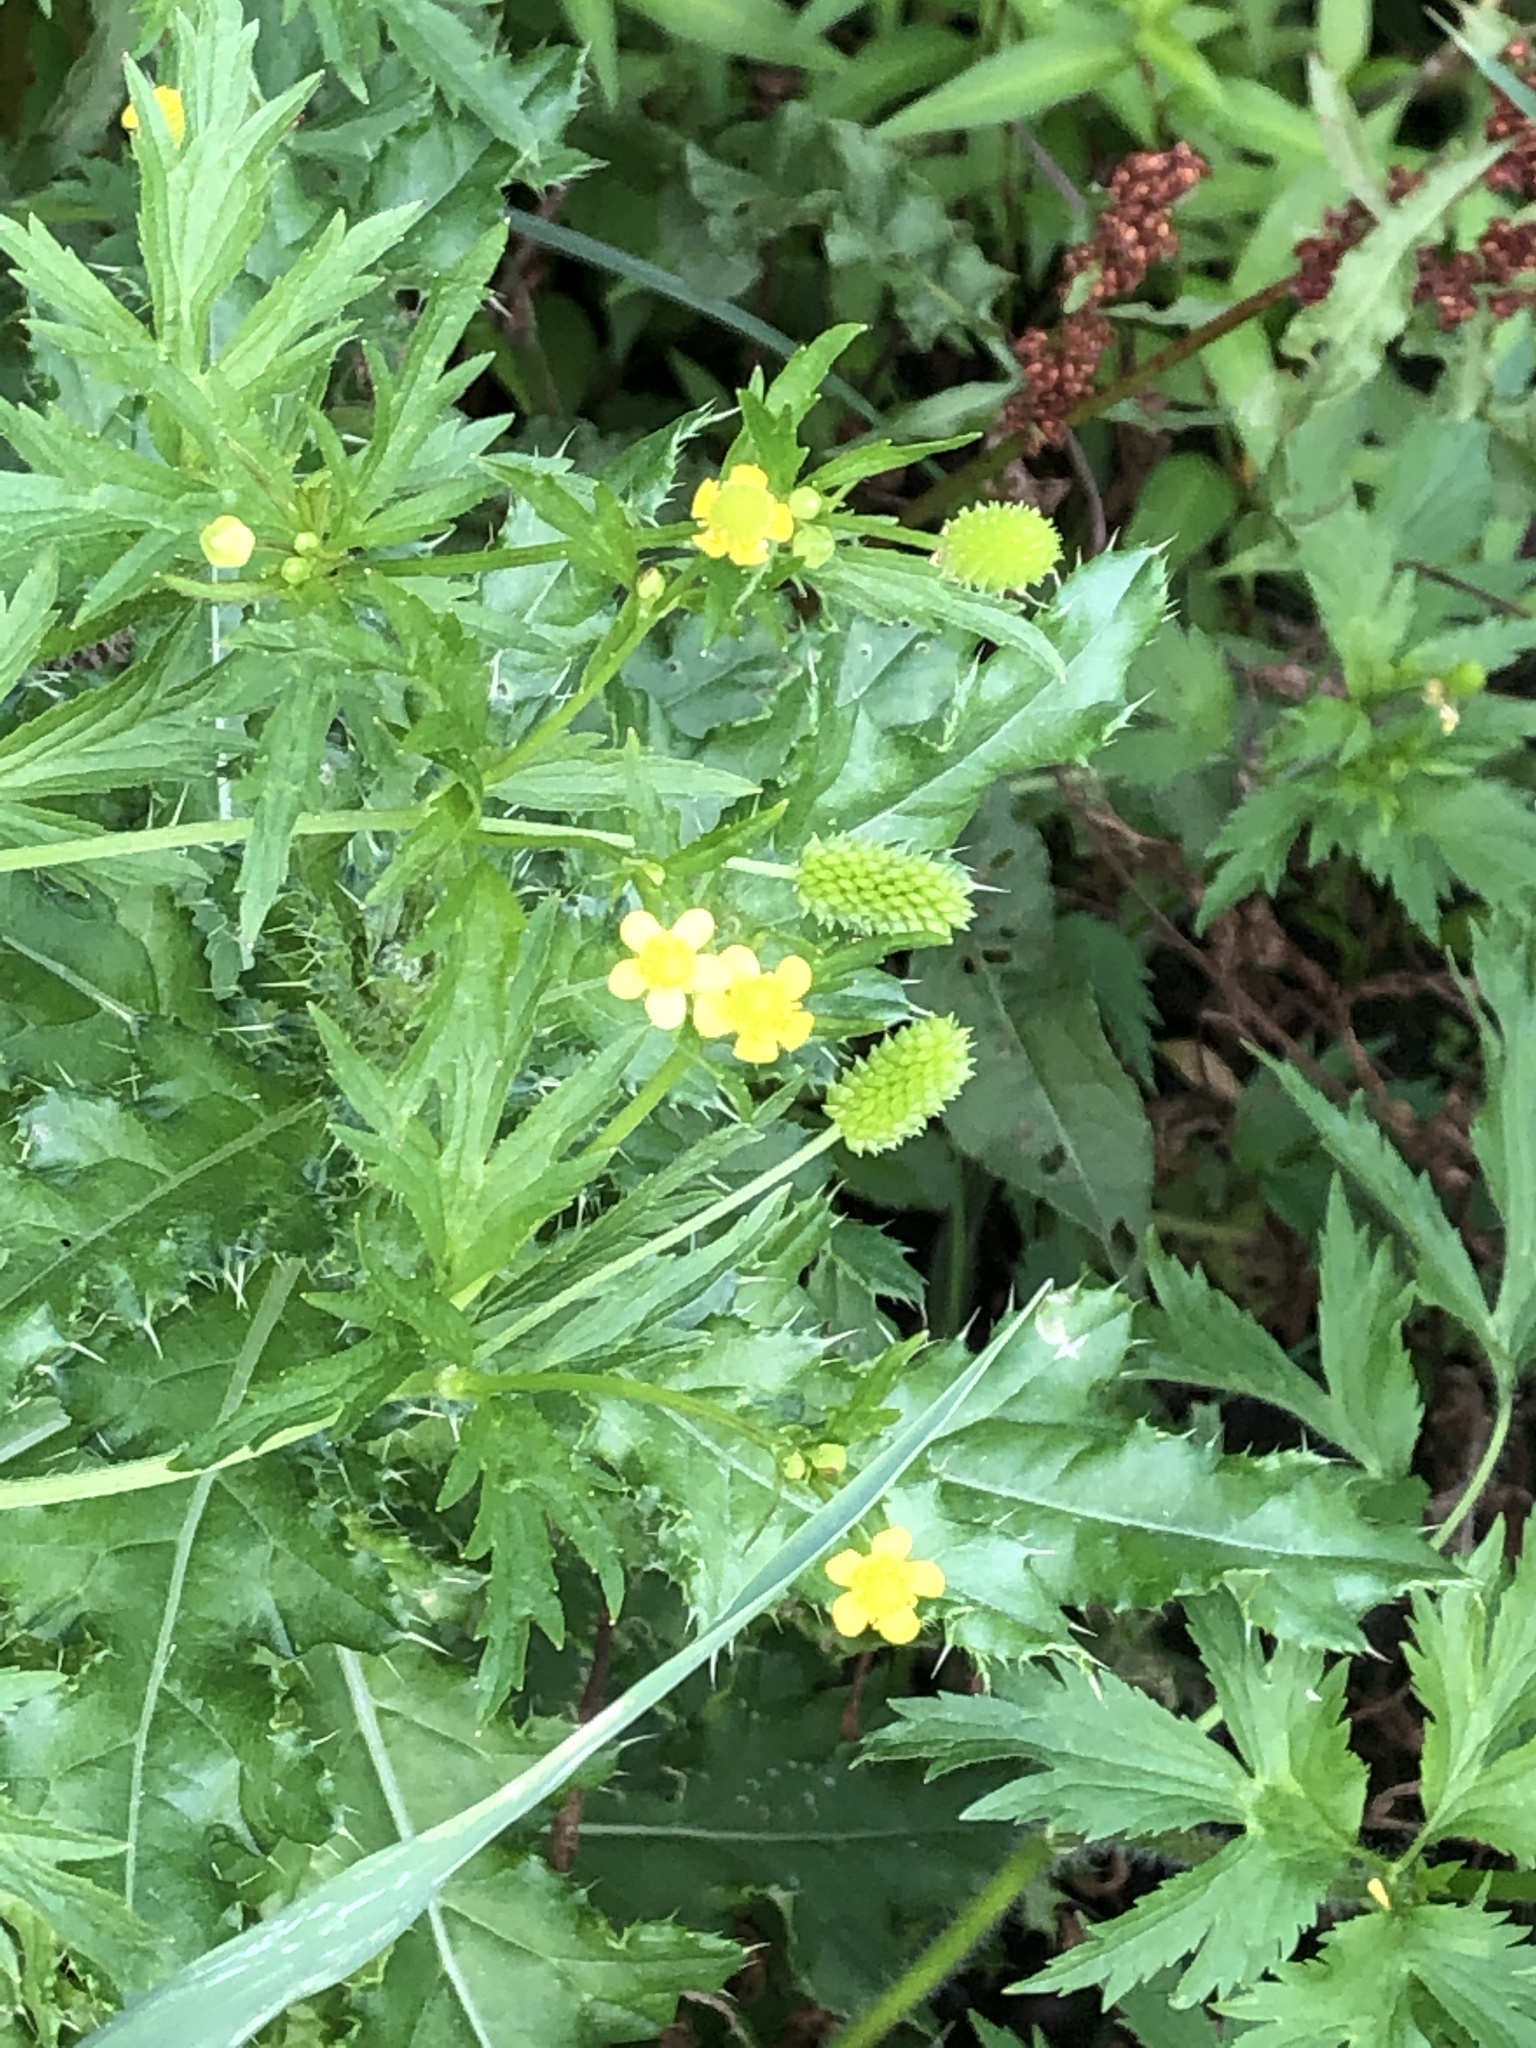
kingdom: Plantae
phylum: Tracheophyta
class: Magnoliopsida
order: Ranunculales
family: Ranunculaceae
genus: Ranunculus
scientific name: Ranunculus pensylvanicus
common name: Bristly buttercup
